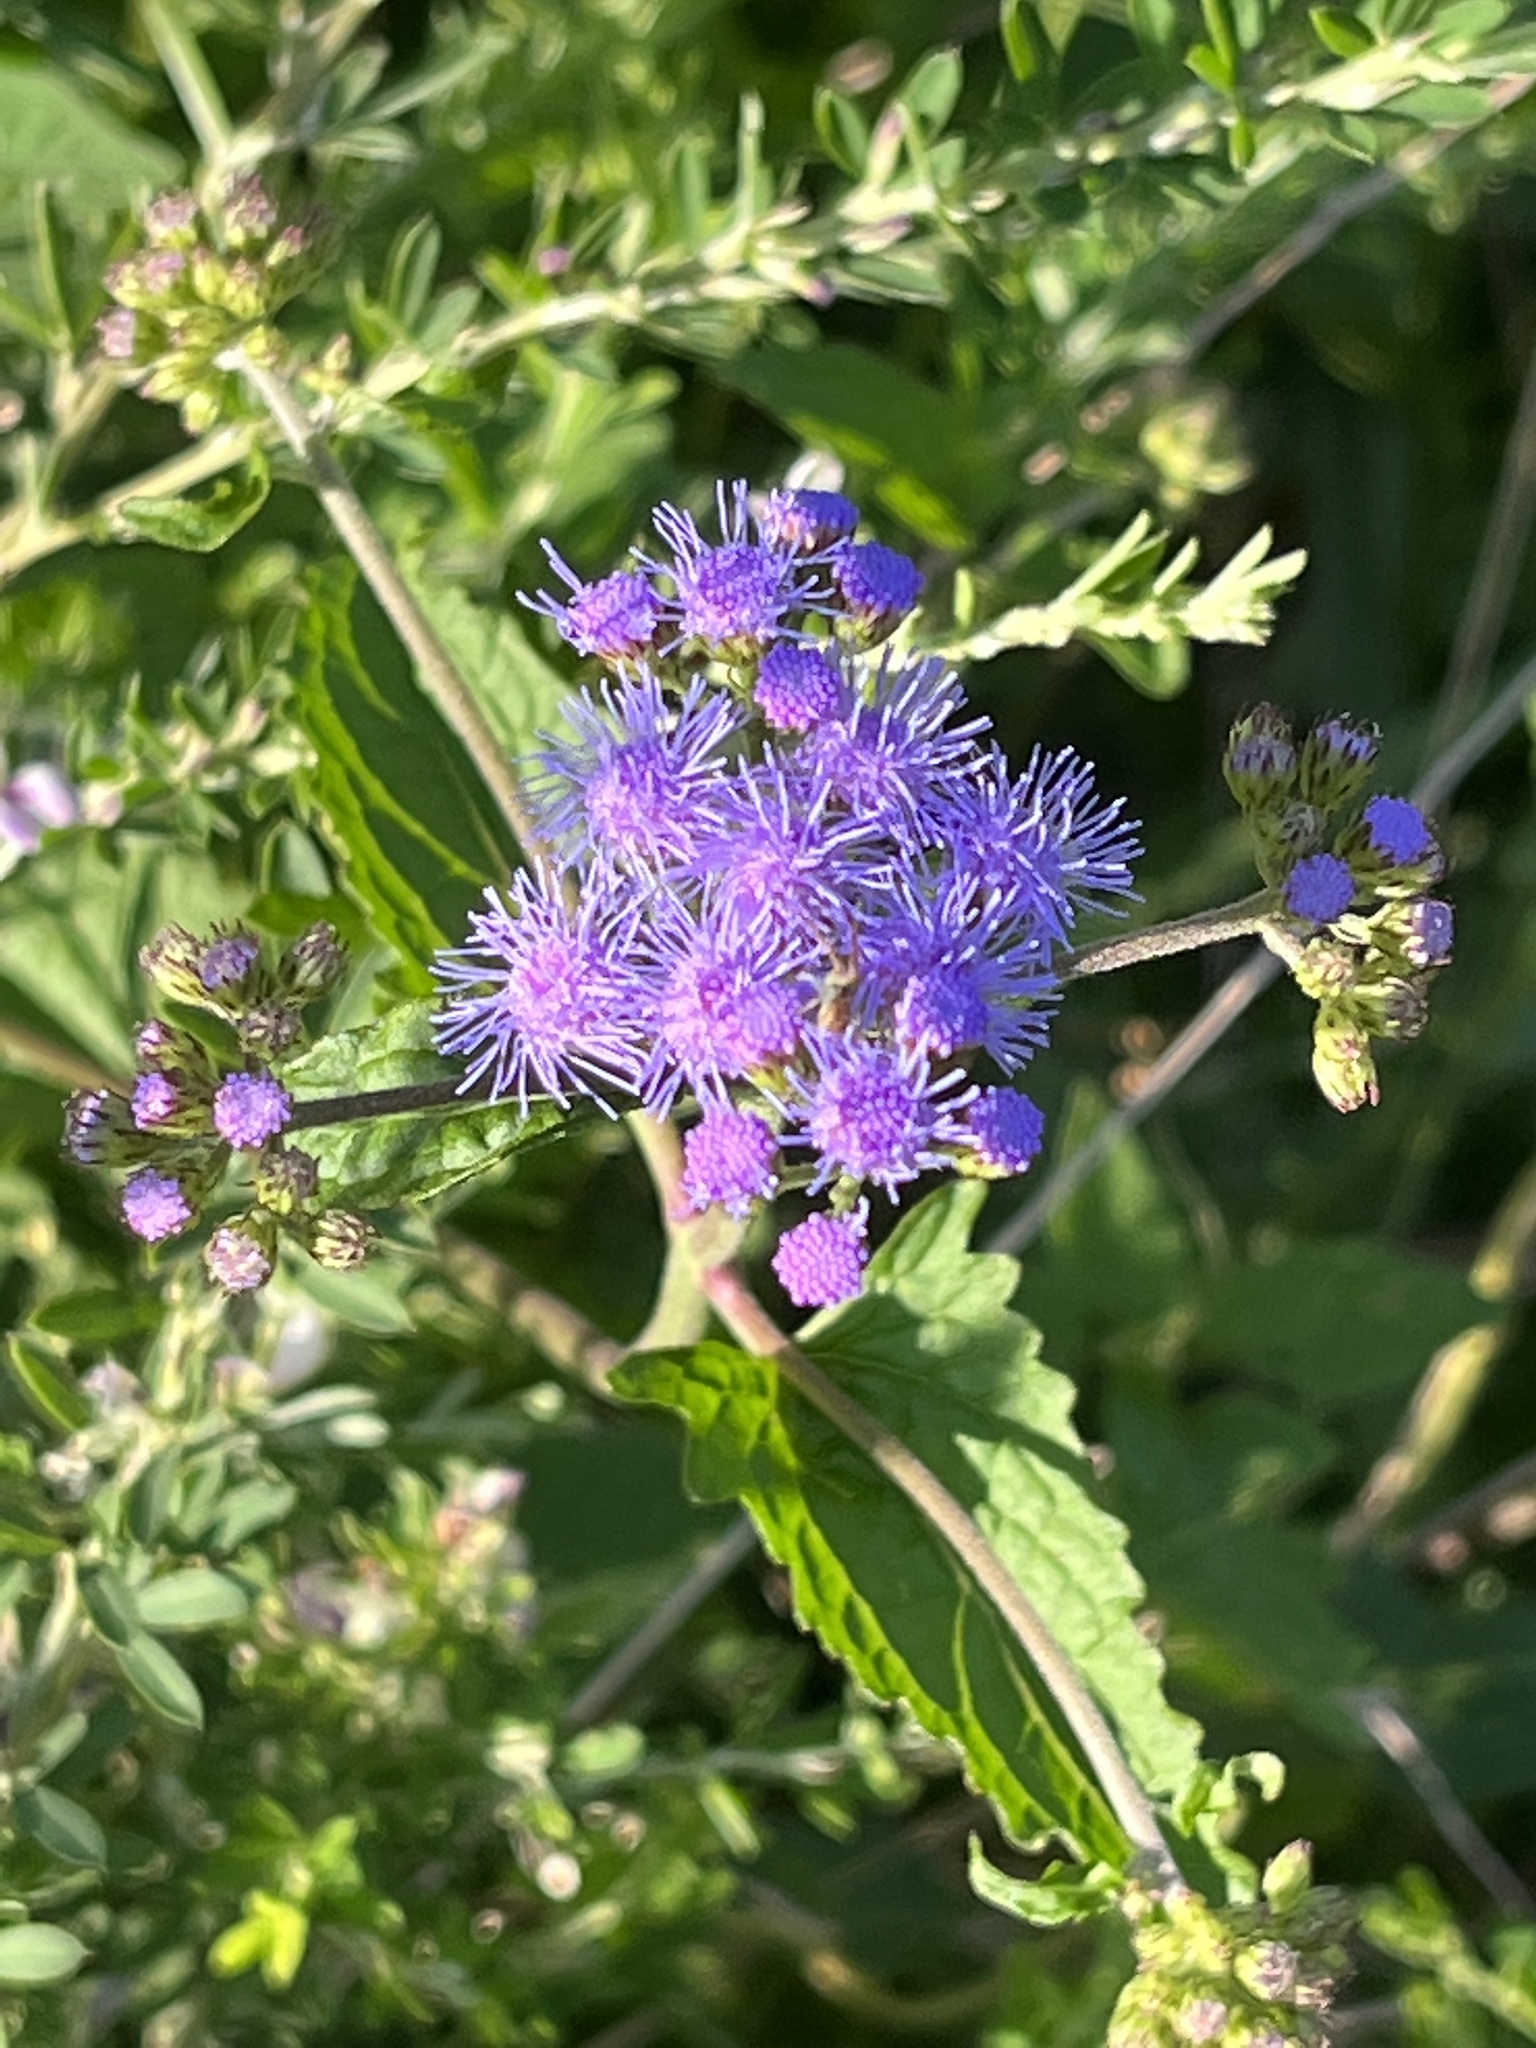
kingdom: Plantae
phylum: Tracheophyta
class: Magnoliopsida
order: Asterales
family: Asteraceae
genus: Conoclinium
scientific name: Conoclinium coelestinum
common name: Blue mistflower
